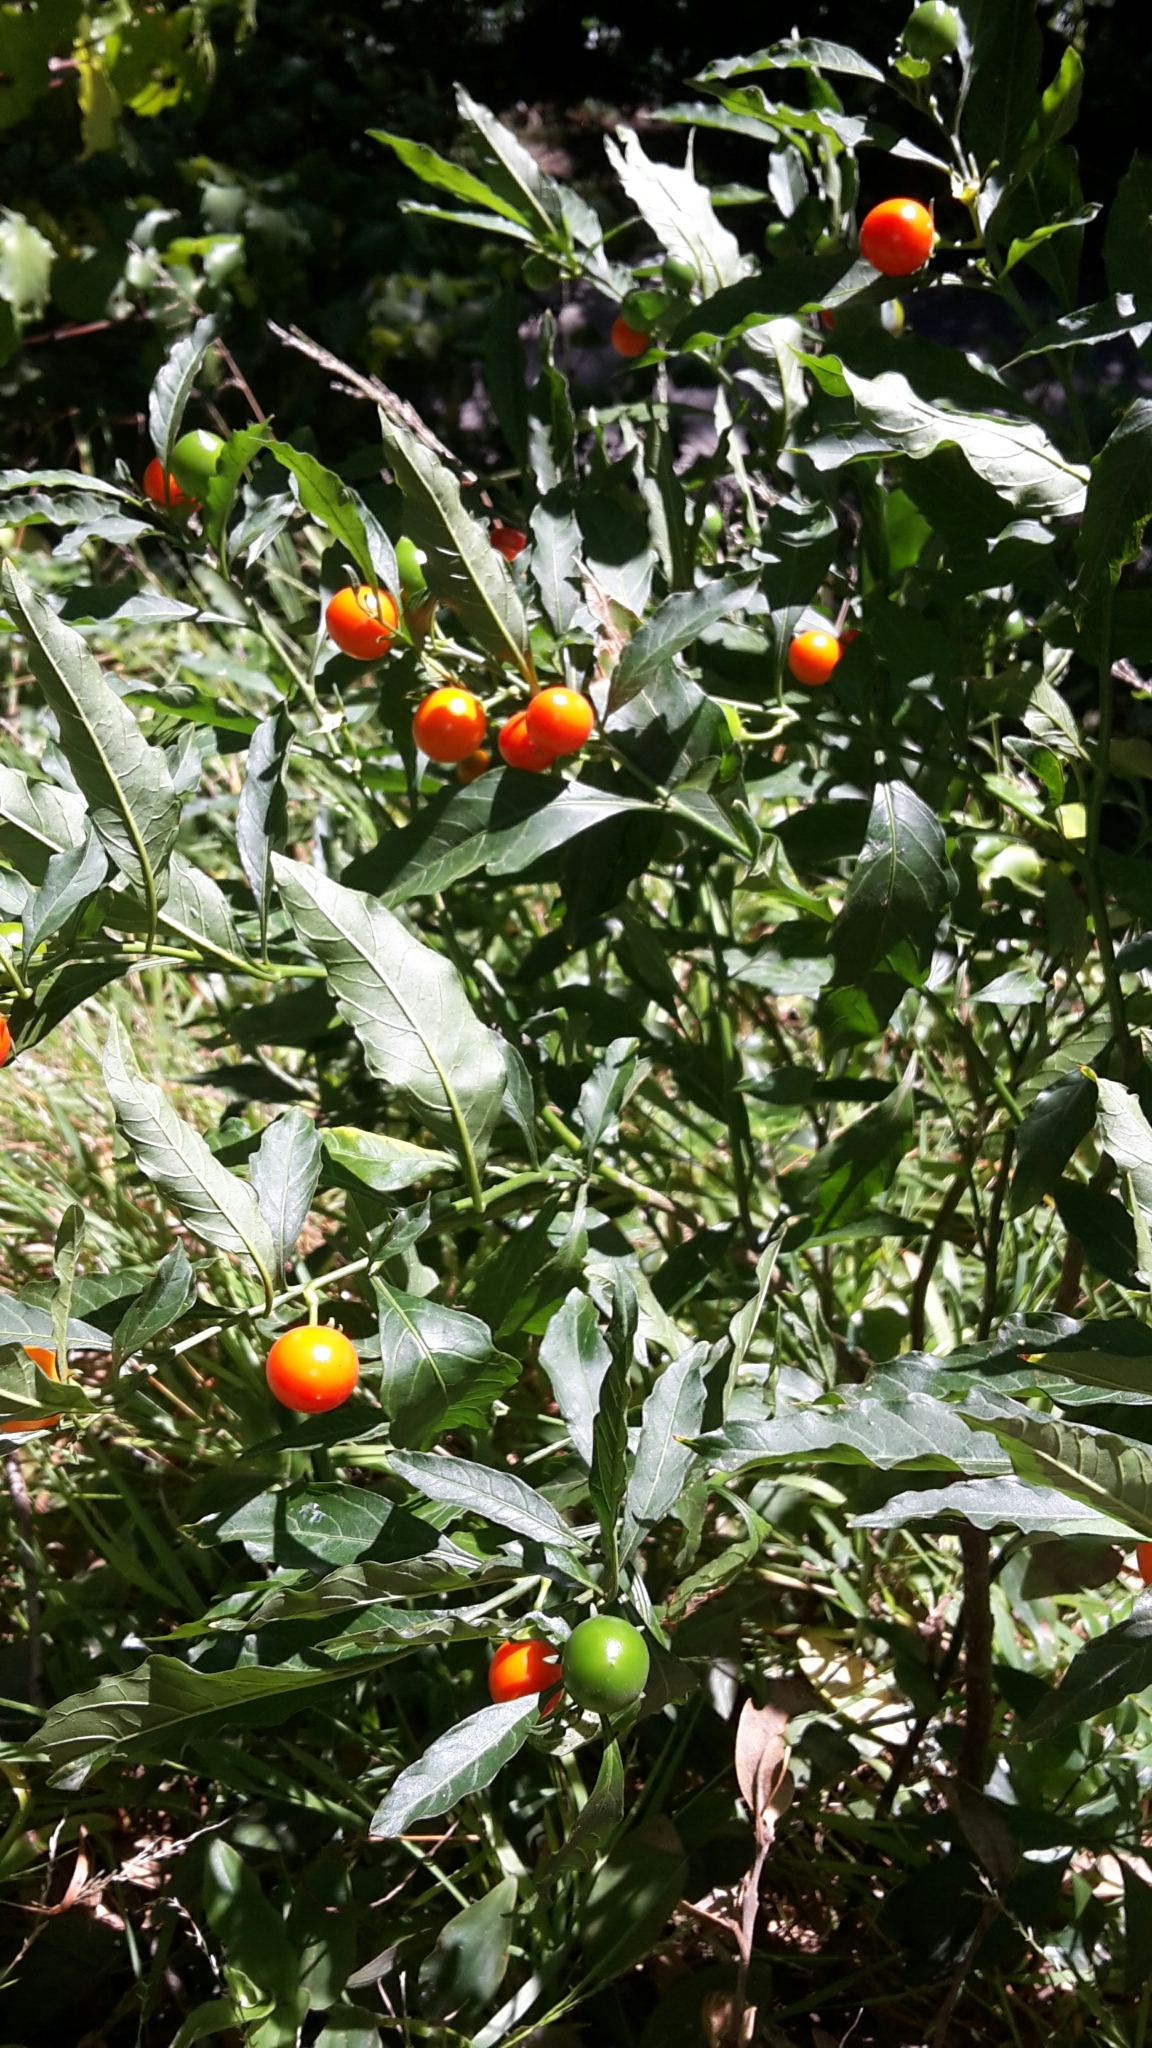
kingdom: Plantae
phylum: Tracheophyta
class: Magnoliopsida
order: Solanales
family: Solanaceae
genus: Solanum
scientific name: Solanum pseudocapsicum
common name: Jerusalem cherry
